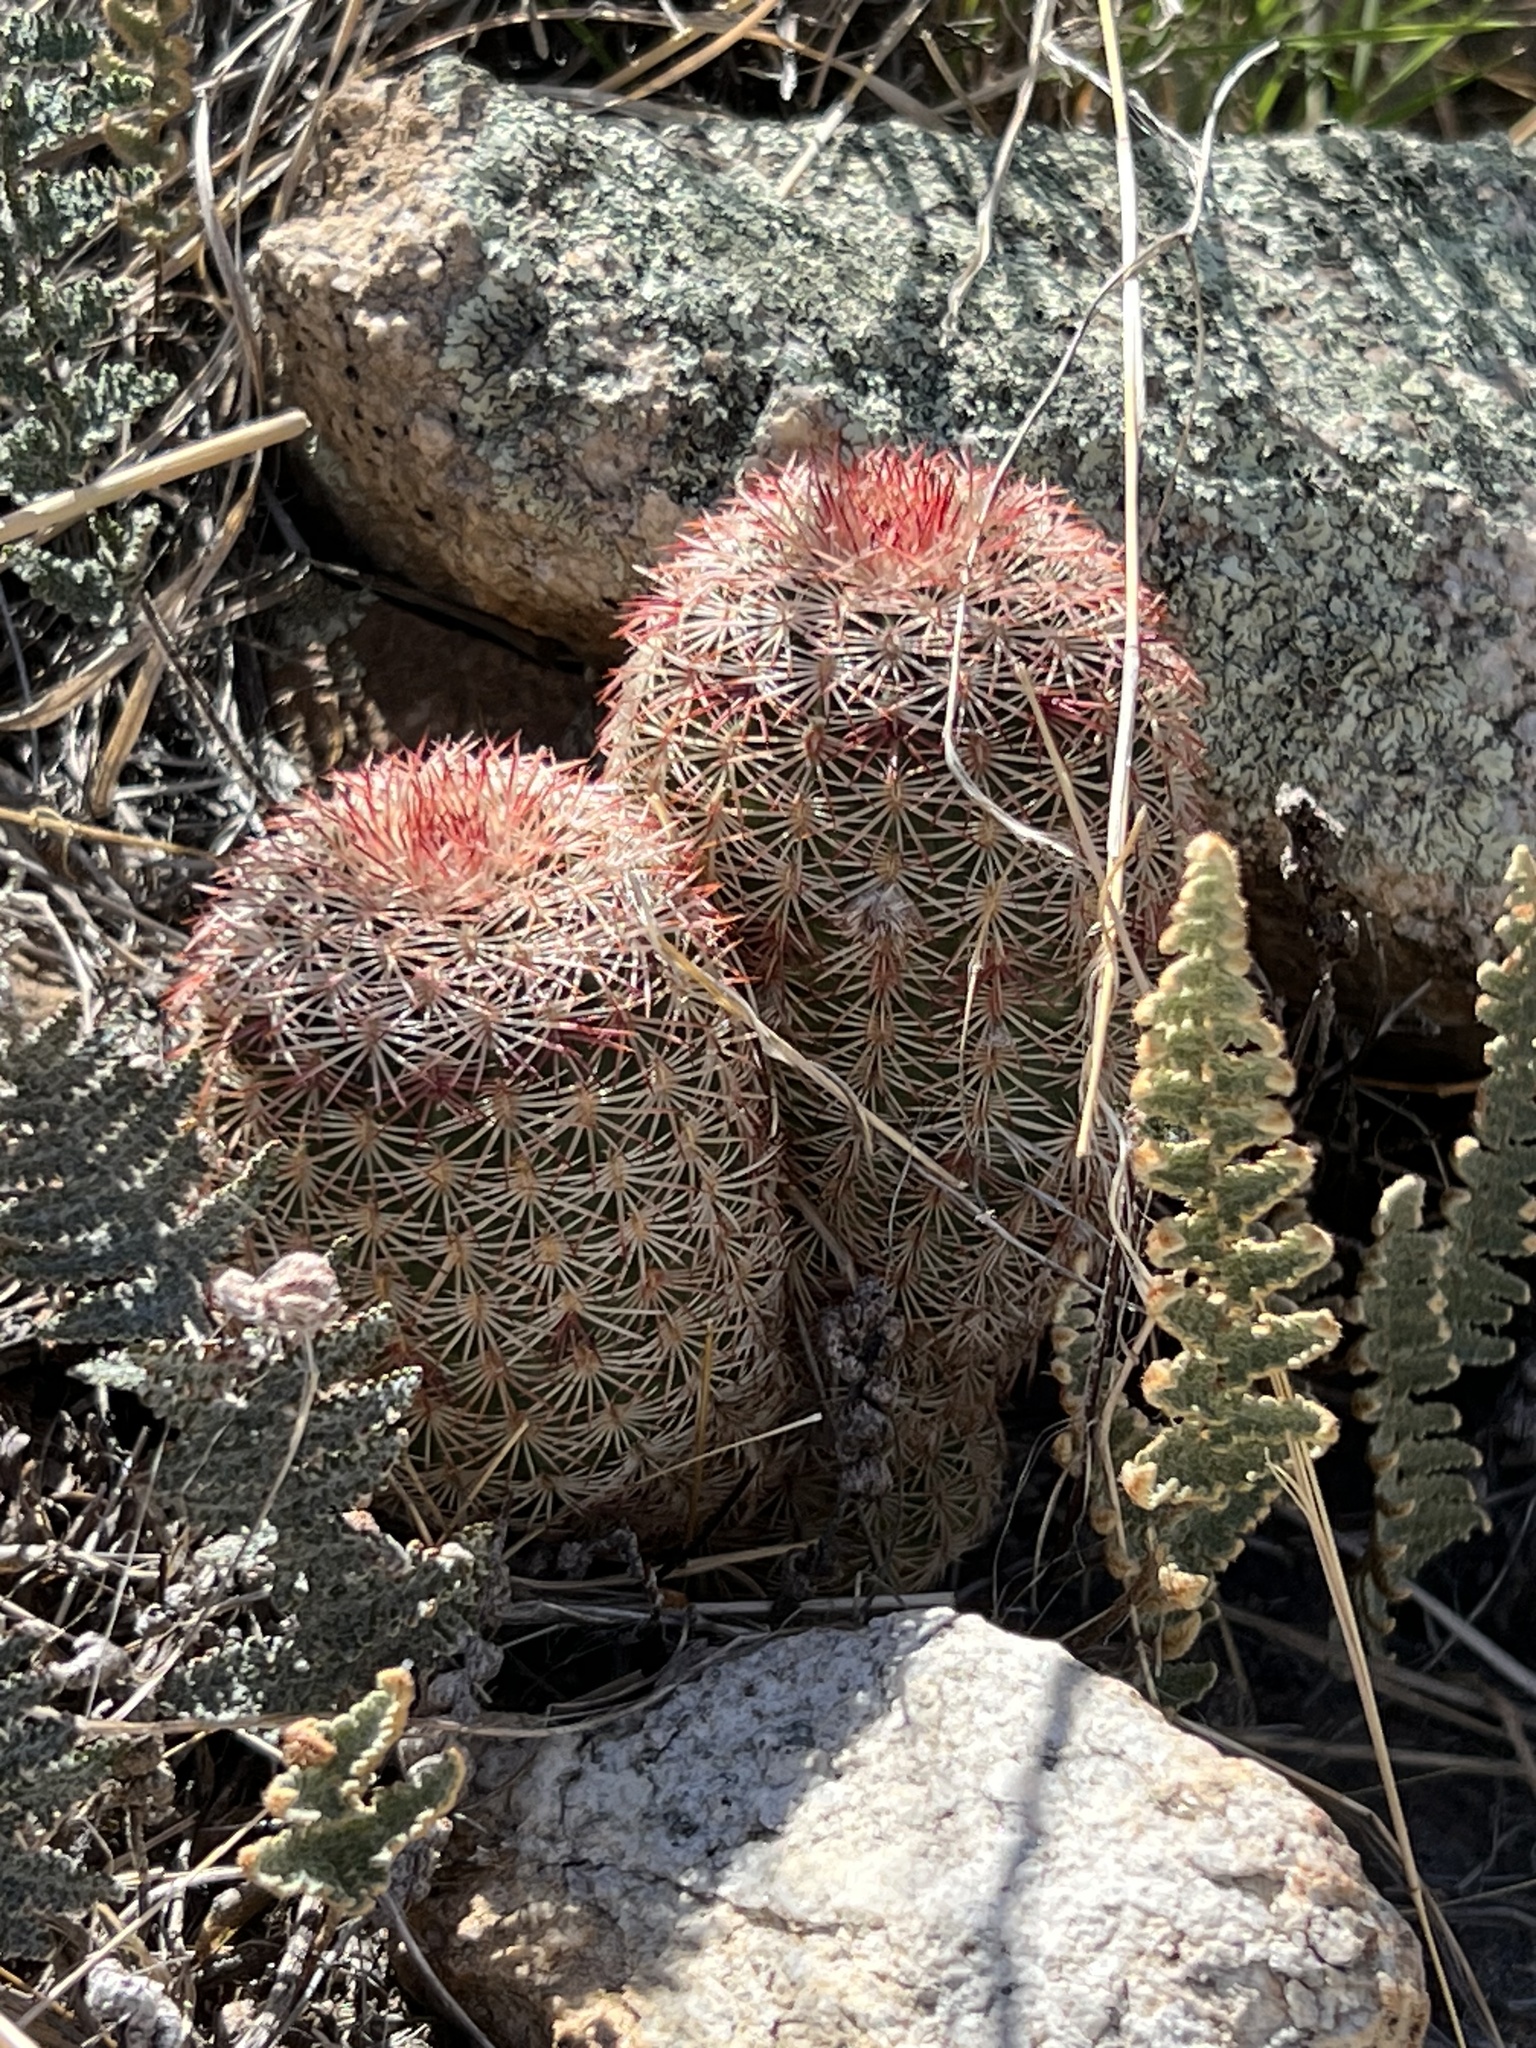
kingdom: Plantae
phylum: Tracheophyta
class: Magnoliopsida
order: Caryophyllales
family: Cactaceae
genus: Echinocereus
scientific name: Echinocereus rigidissimus
